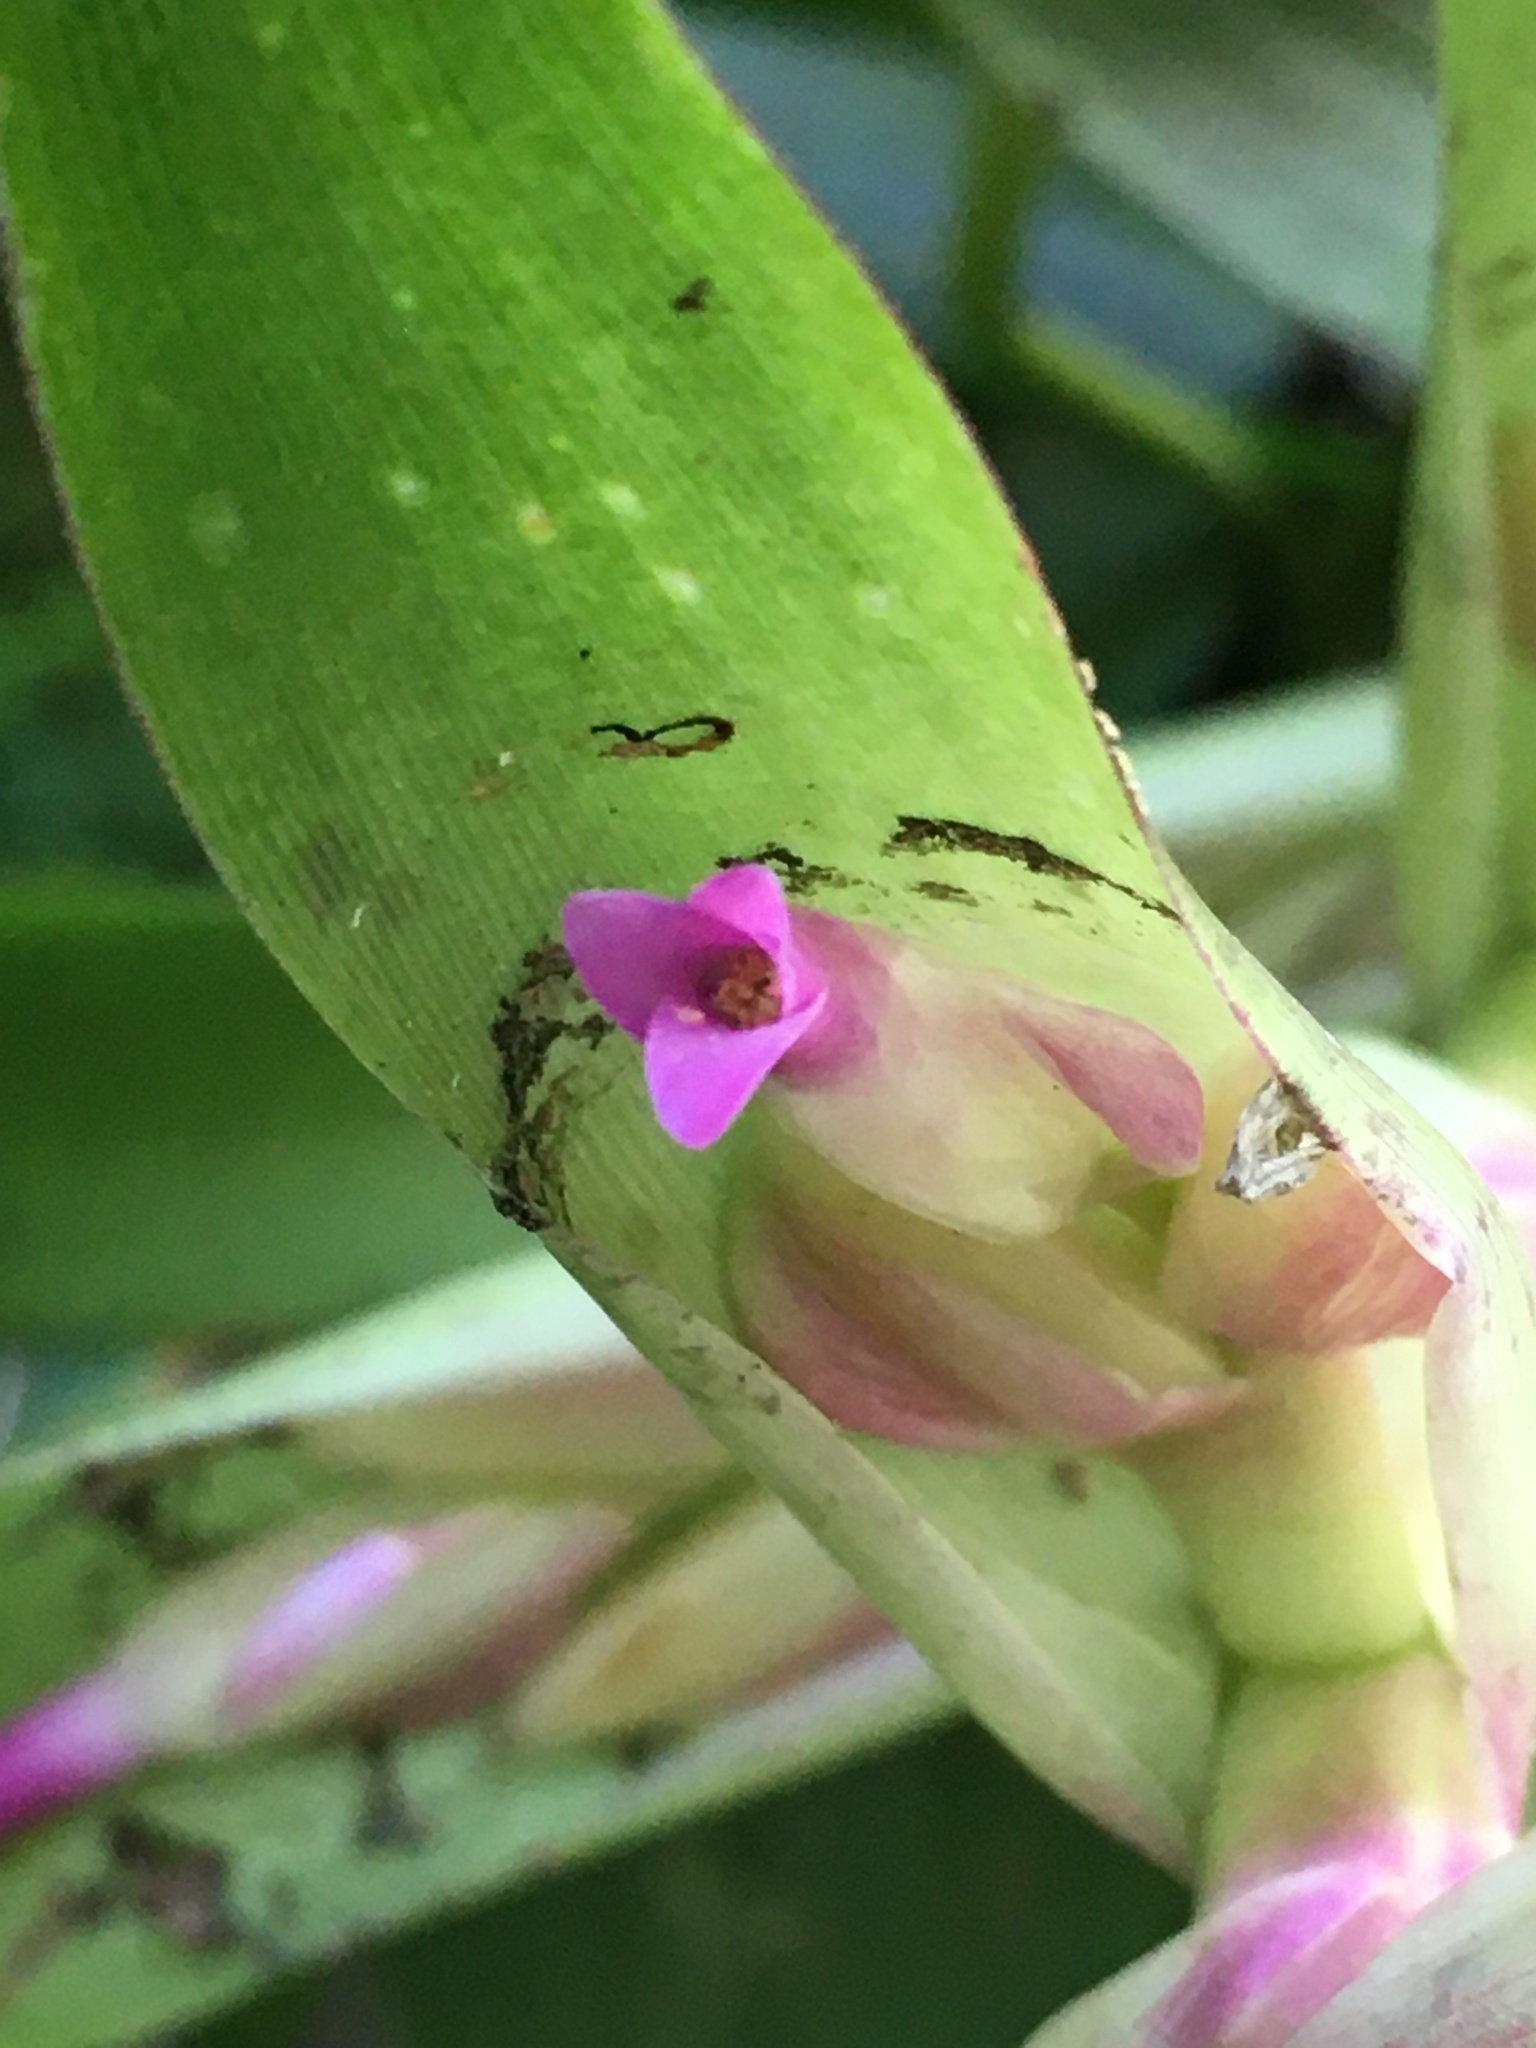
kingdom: Plantae
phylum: Tracheophyta
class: Liliopsida
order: Poales
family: Bromeliaceae
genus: Tillandsia
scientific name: Tillandsia biflora
